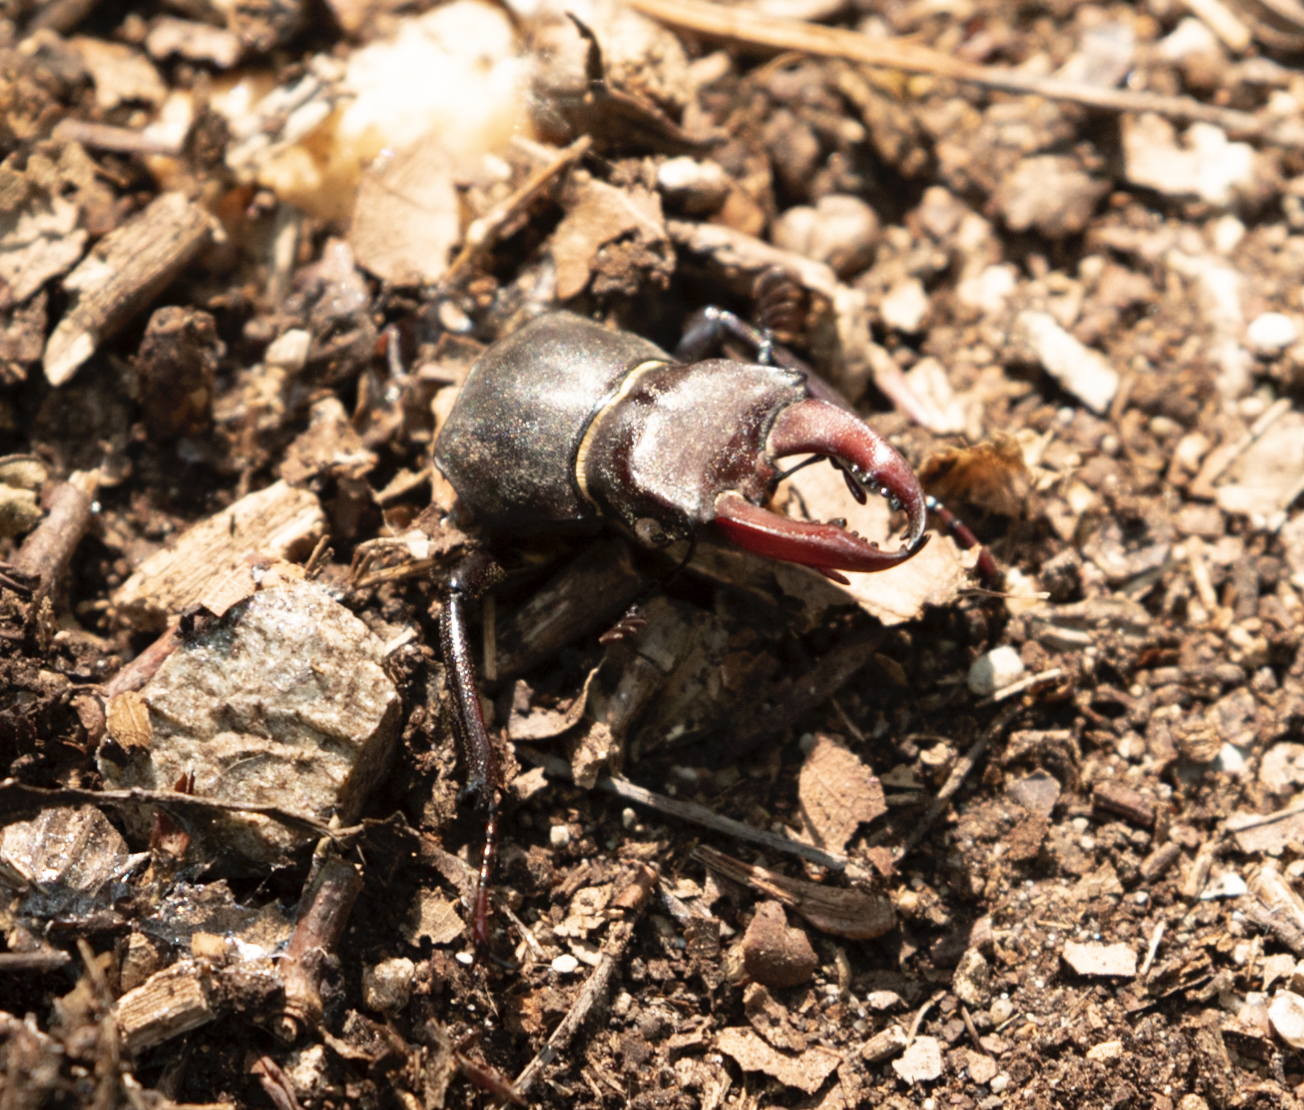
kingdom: Animalia
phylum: Arthropoda
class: Insecta
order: Coleoptera
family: Lucanidae
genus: Lucanus
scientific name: Lucanus cervus
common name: Stag beetle
